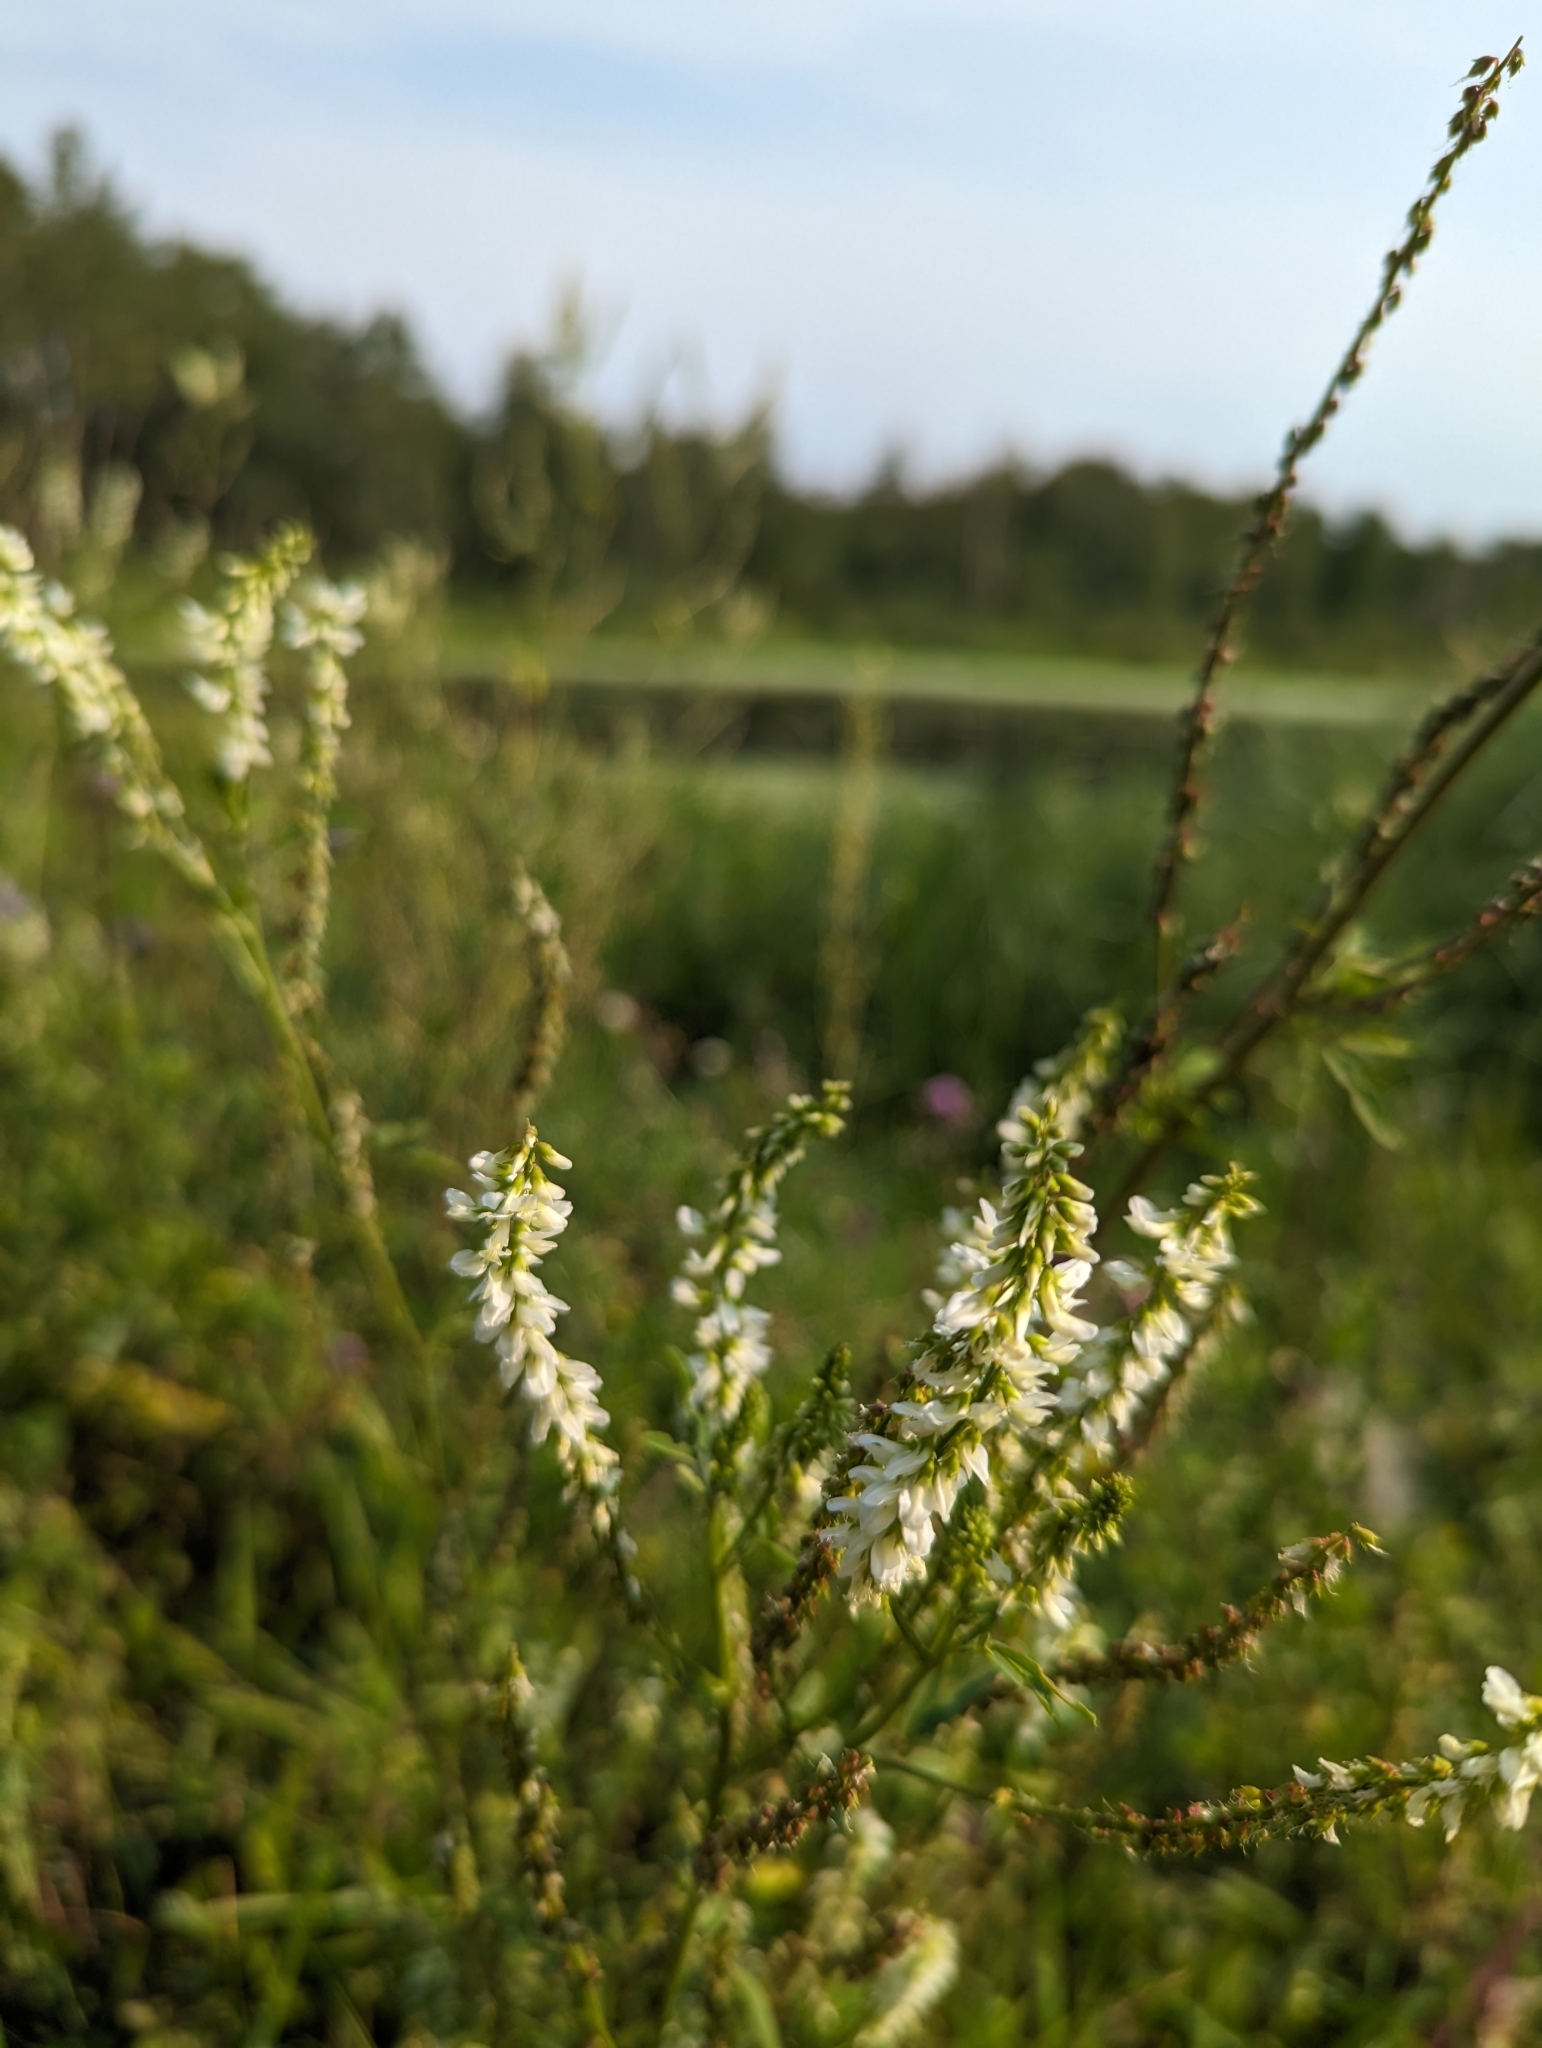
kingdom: Plantae
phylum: Tracheophyta
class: Magnoliopsida
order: Fabales
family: Fabaceae
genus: Melilotus
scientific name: Melilotus albus
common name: White melilot
